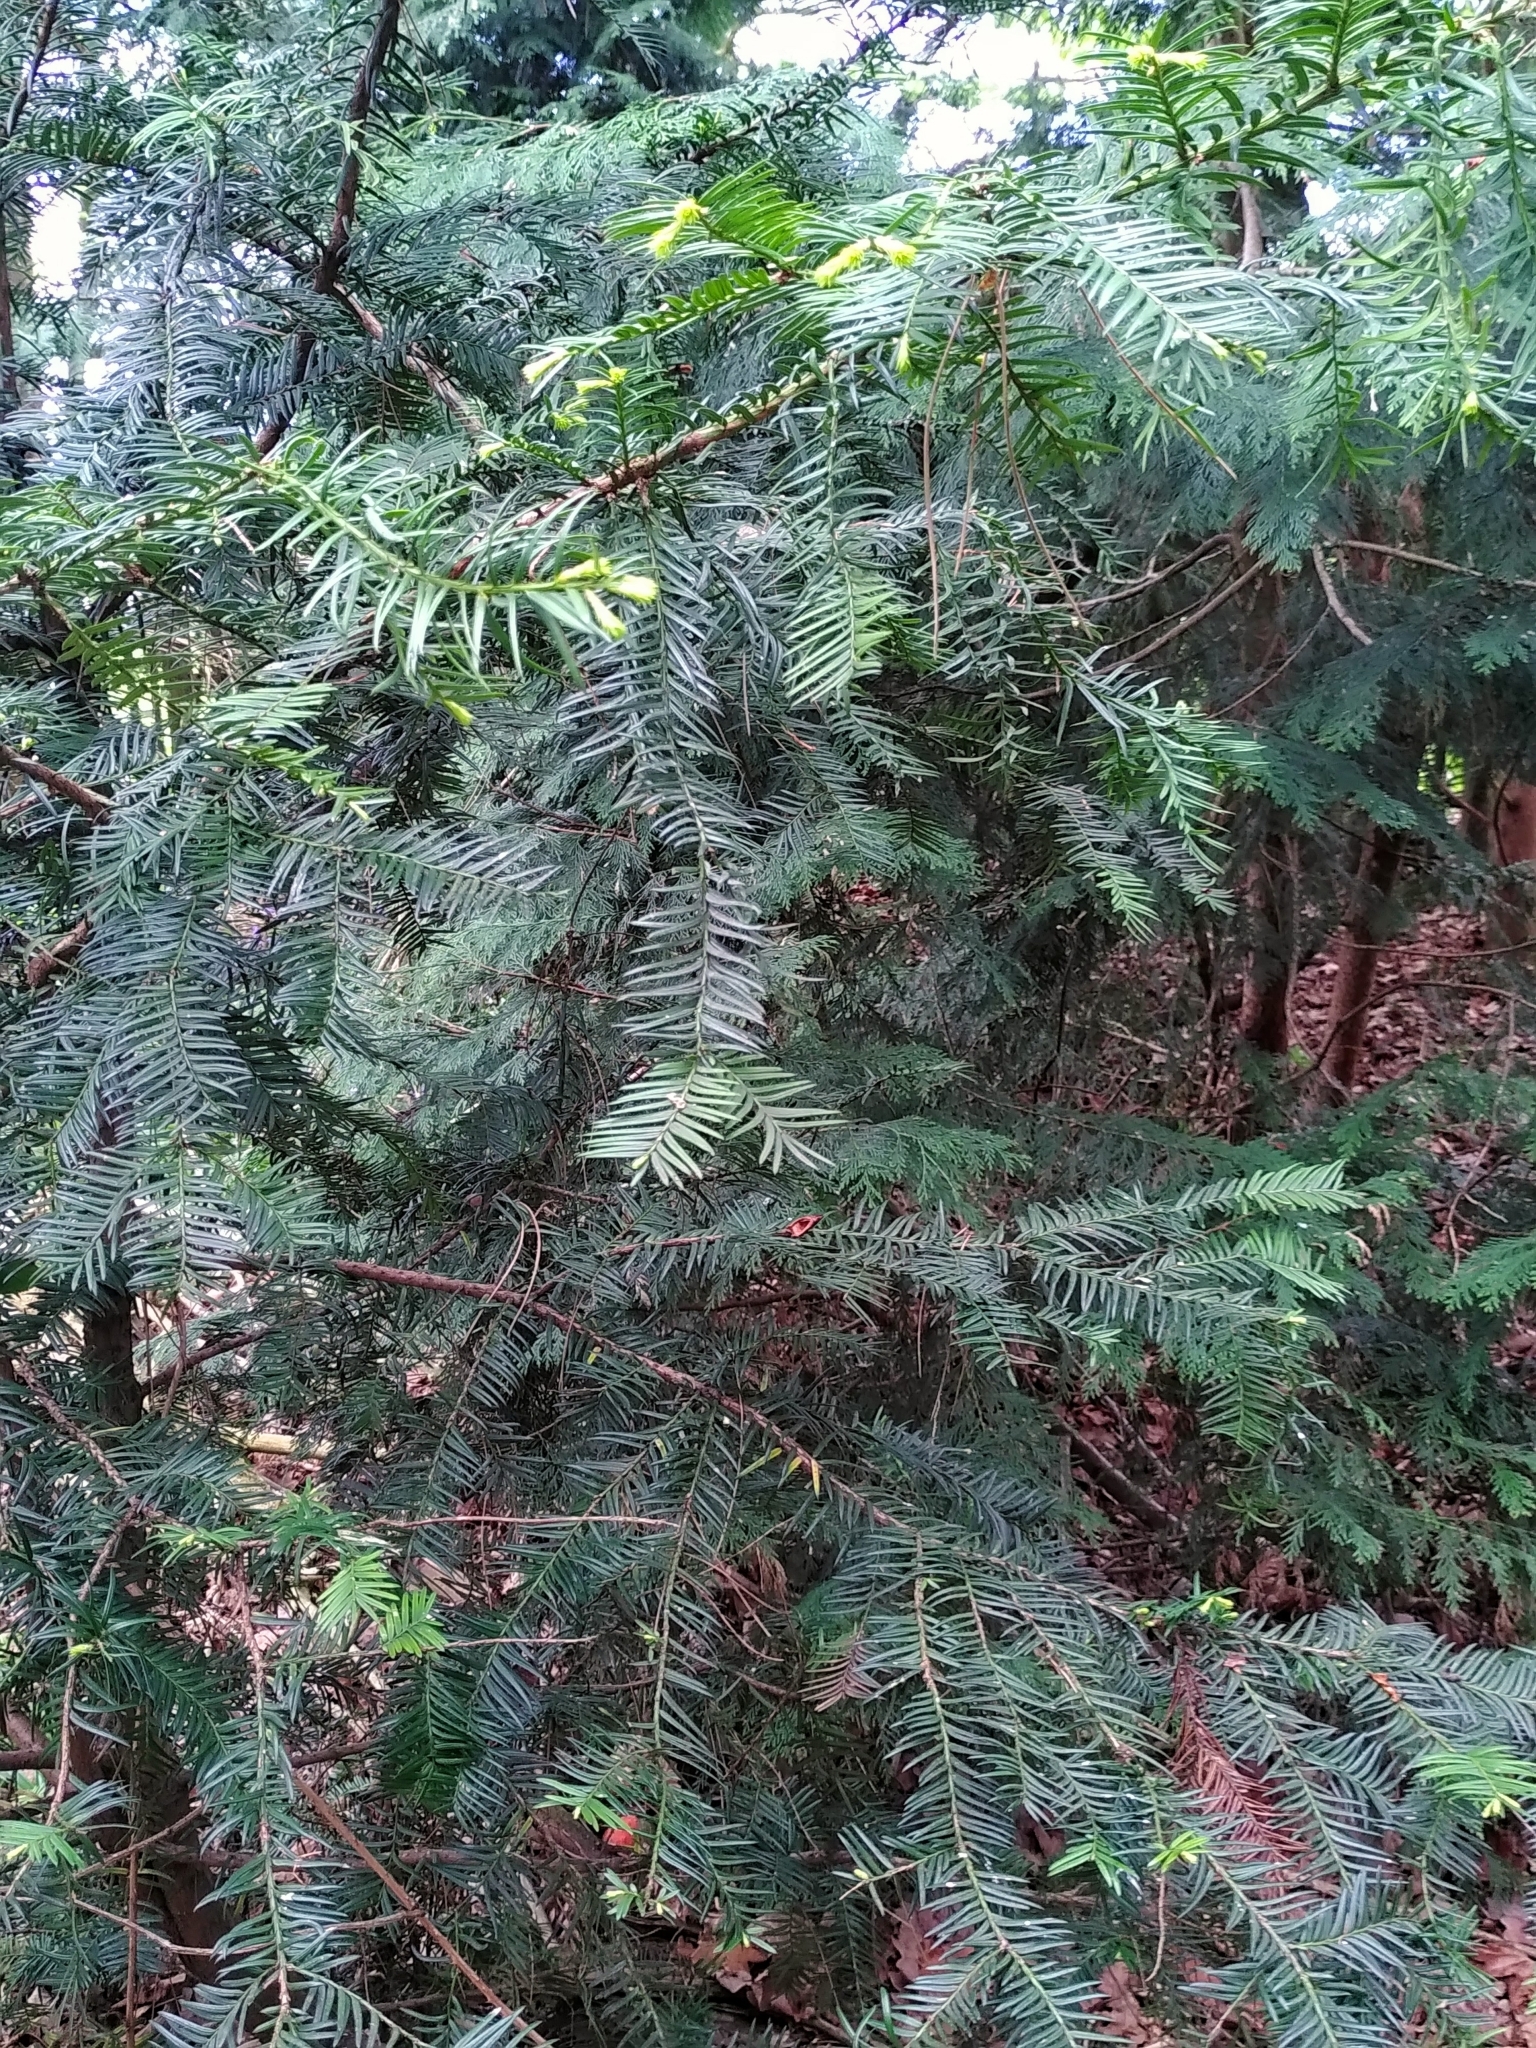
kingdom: Plantae
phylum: Tracheophyta
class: Pinopsida
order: Pinales
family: Taxaceae
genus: Taxus
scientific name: Taxus baccata
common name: Yew
